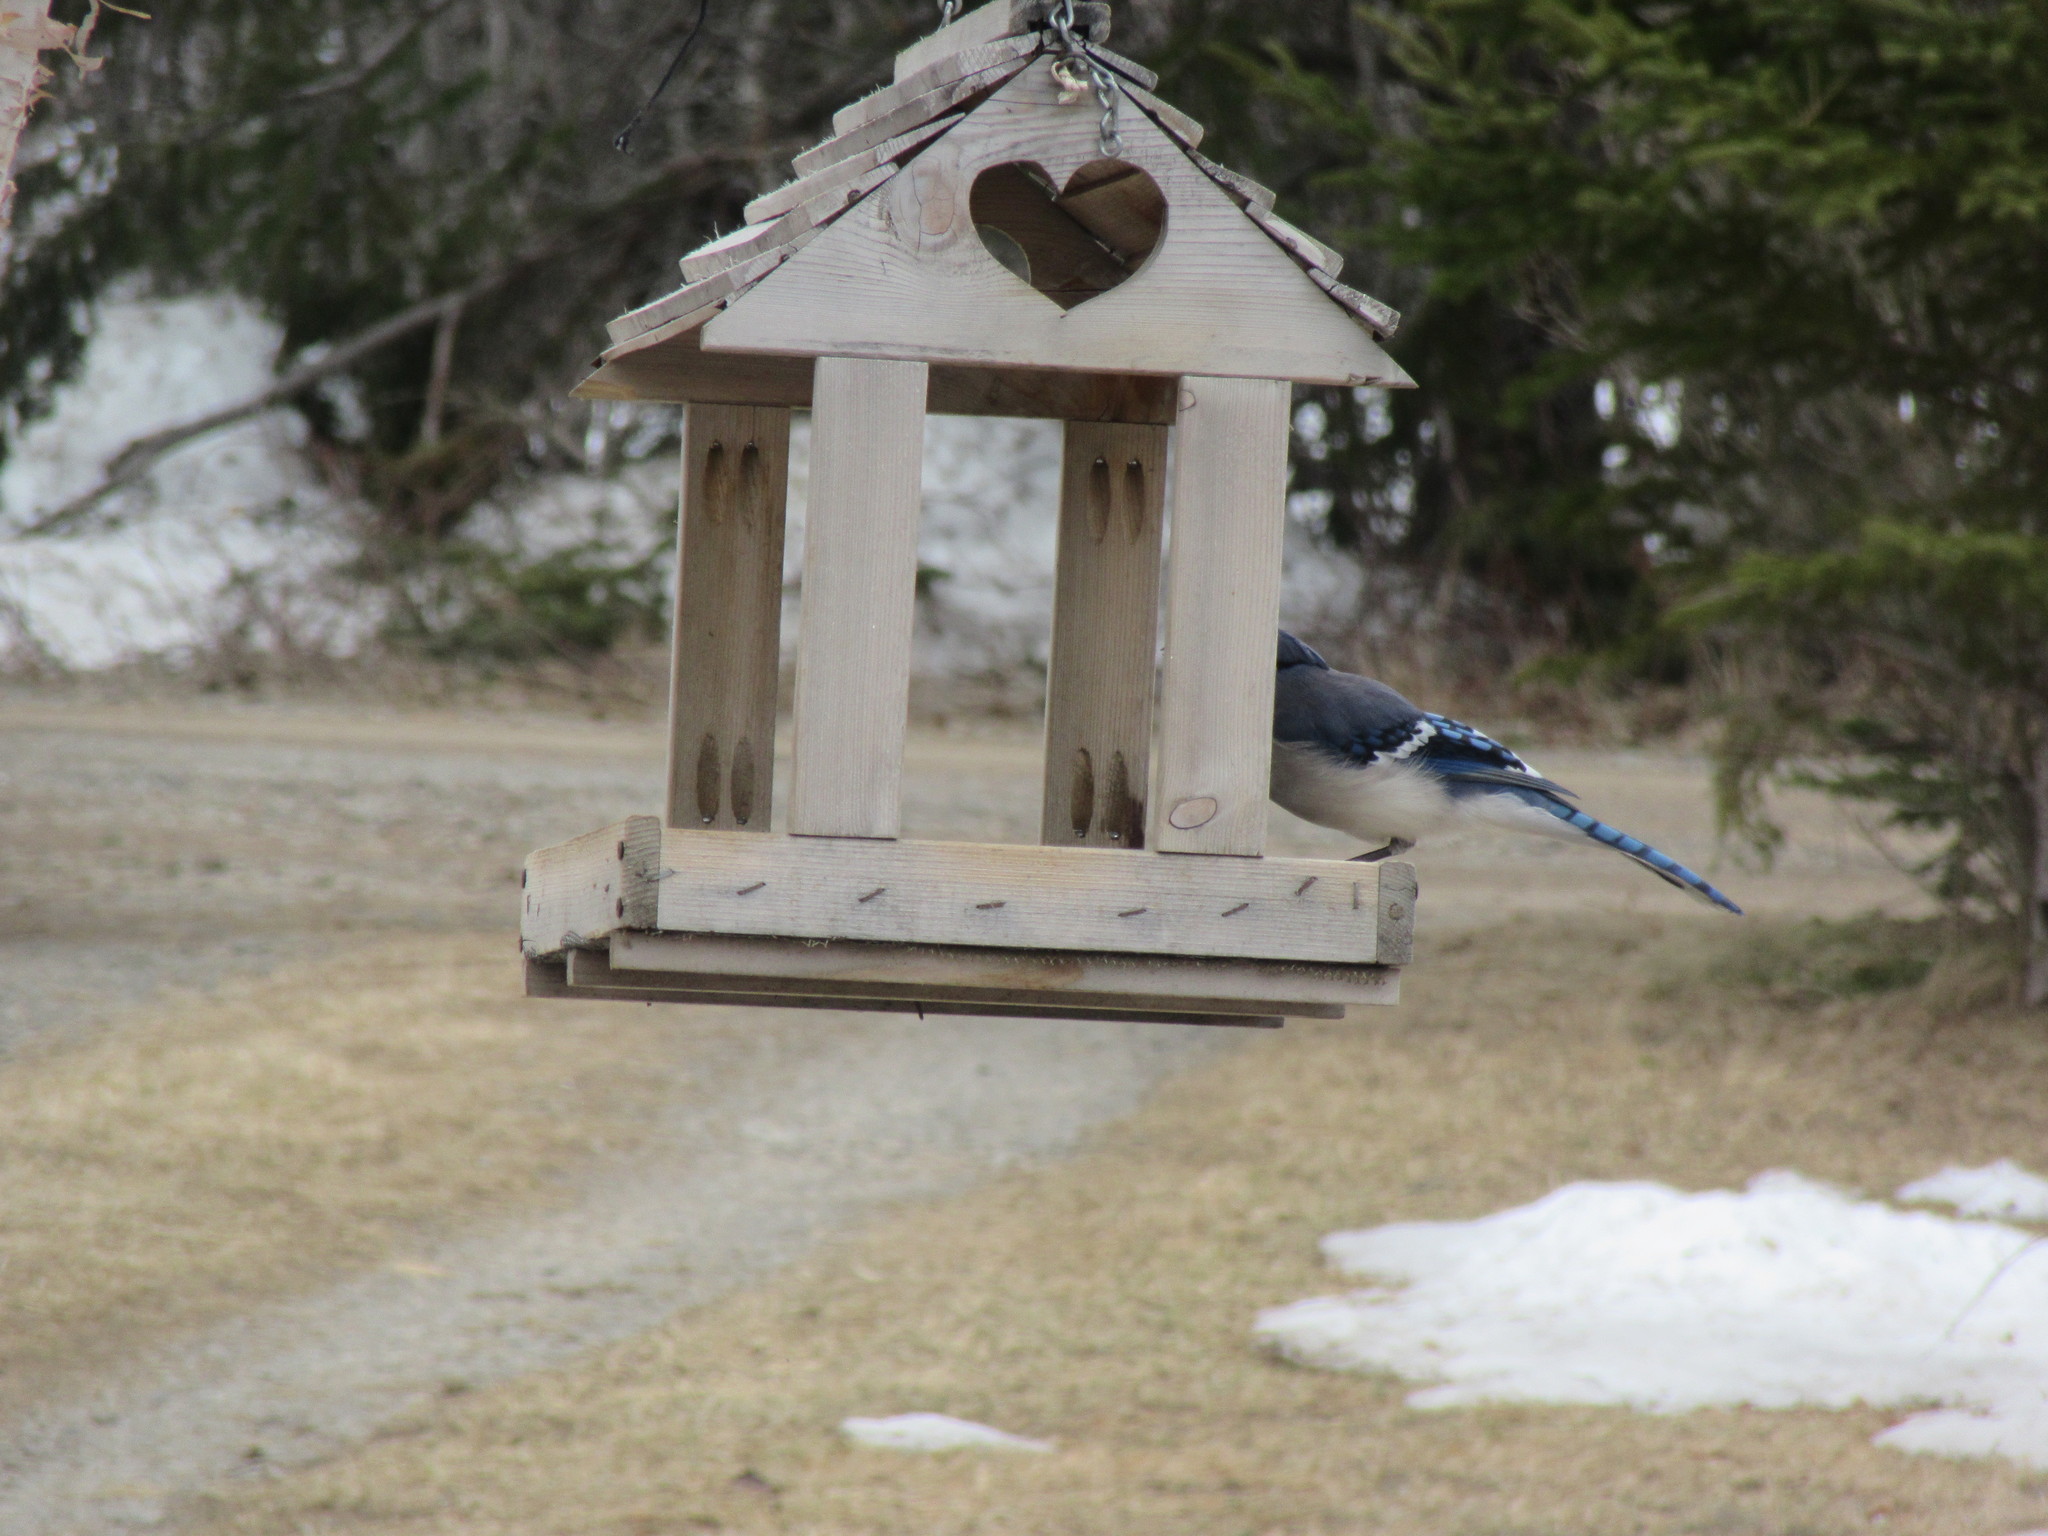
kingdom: Animalia
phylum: Chordata
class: Aves
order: Passeriformes
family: Corvidae
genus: Cyanocitta
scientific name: Cyanocitta cristata
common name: Blue jay
